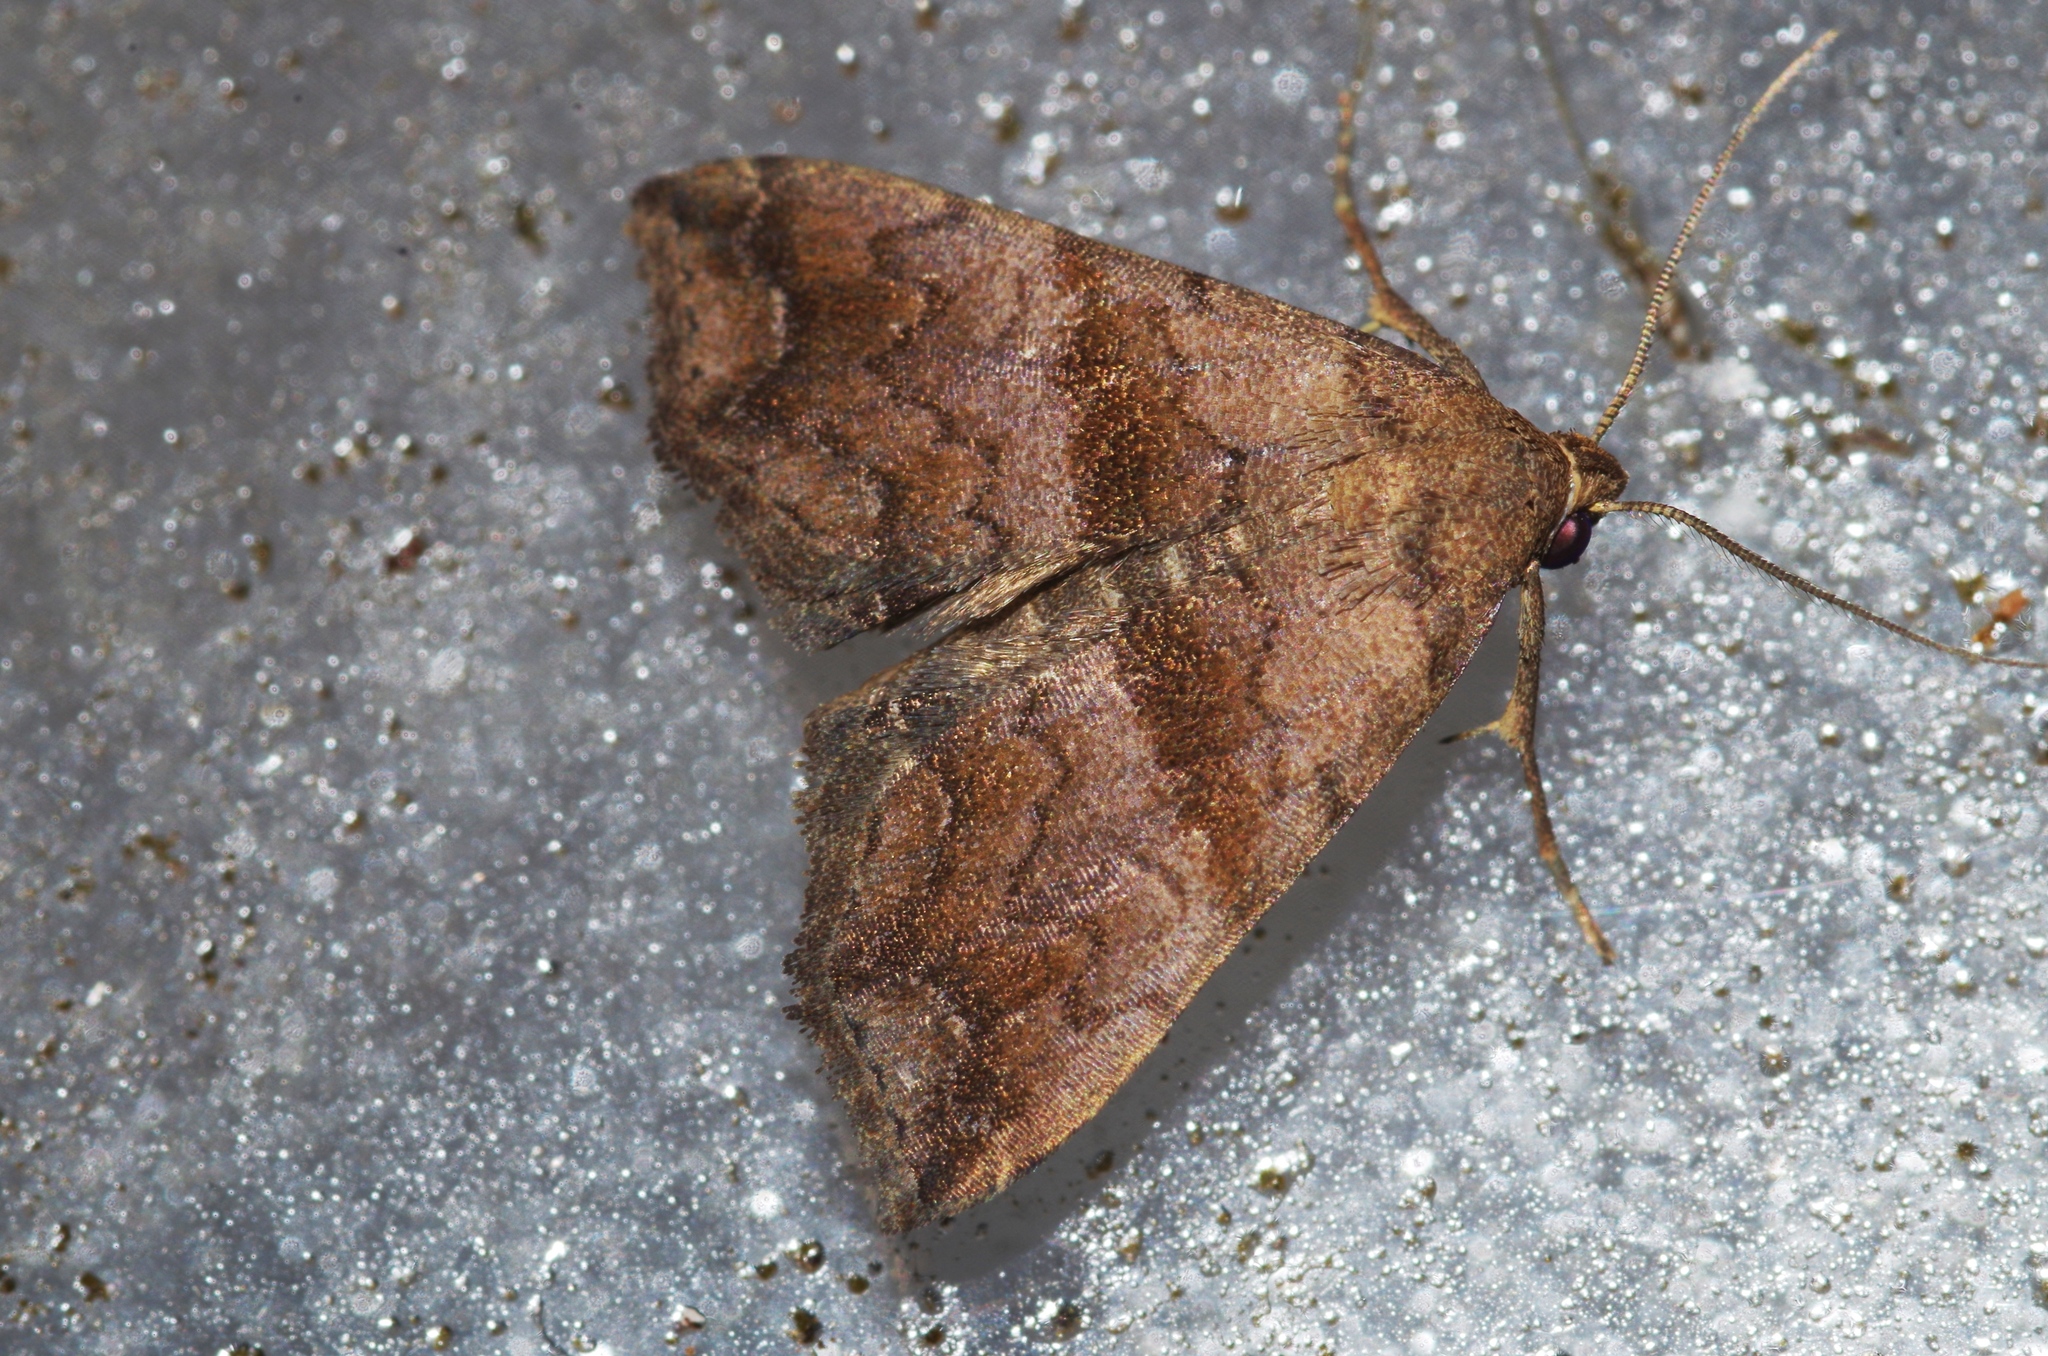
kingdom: Animalia
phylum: Arthropoda
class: Insecta
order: Lepidoptera
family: Erebidae
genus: Polypogon
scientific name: Polypogon Hipoepa fractalis
